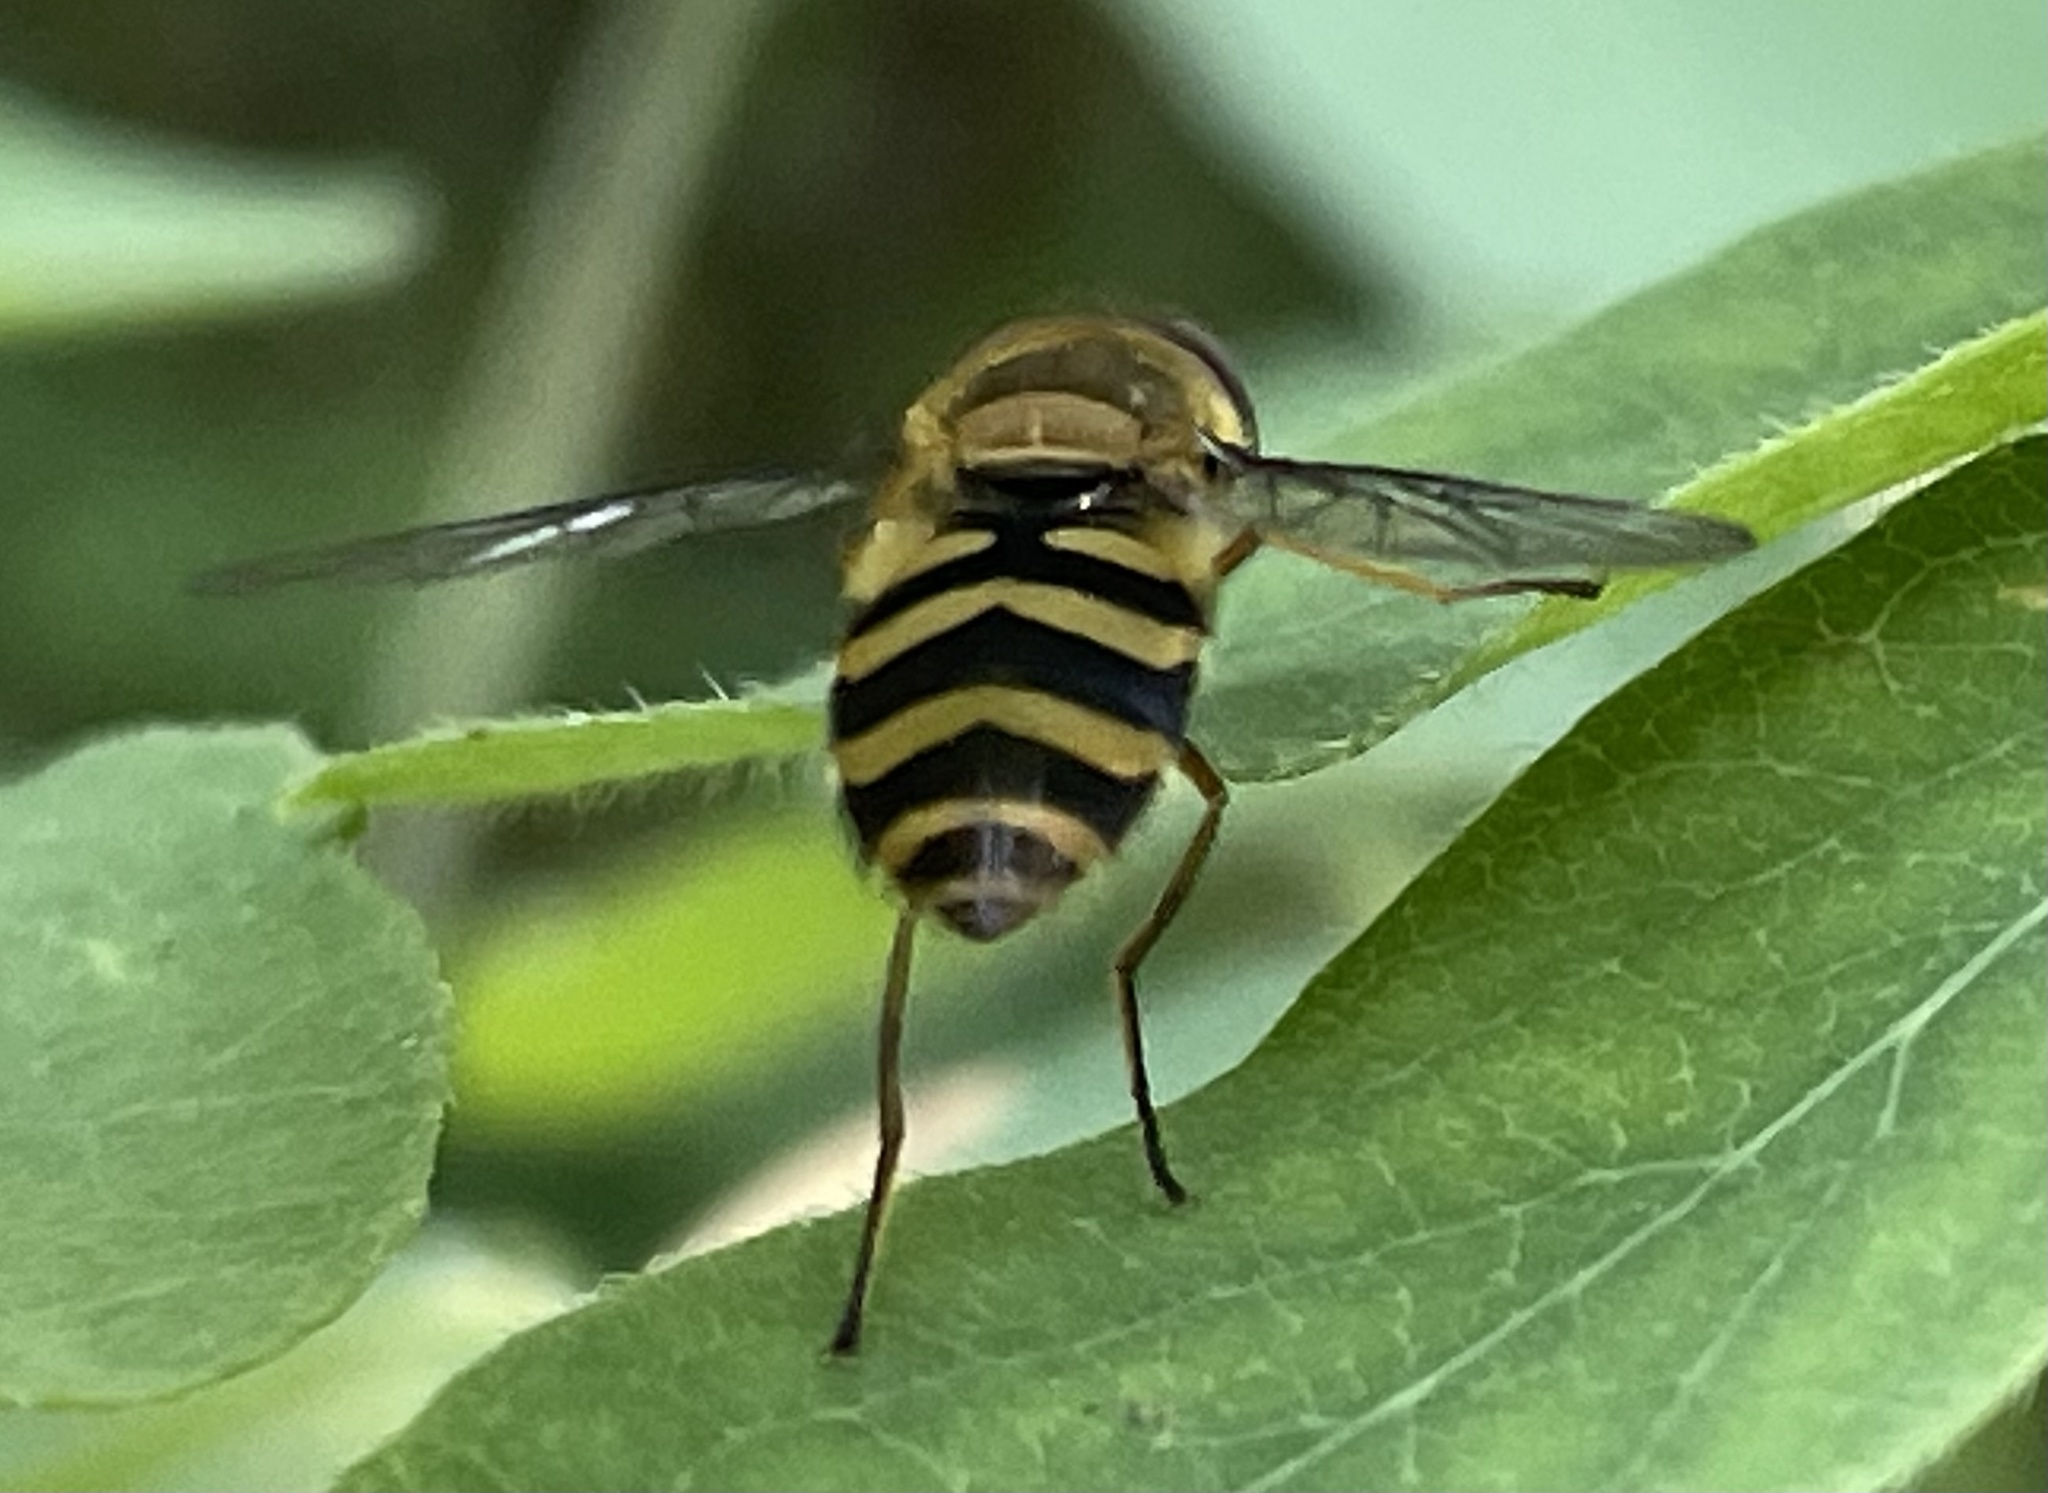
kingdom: Animalia
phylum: Arthropoda
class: Insecta
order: Diptera
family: Syrphidae
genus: Syrphus
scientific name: Syrphus
